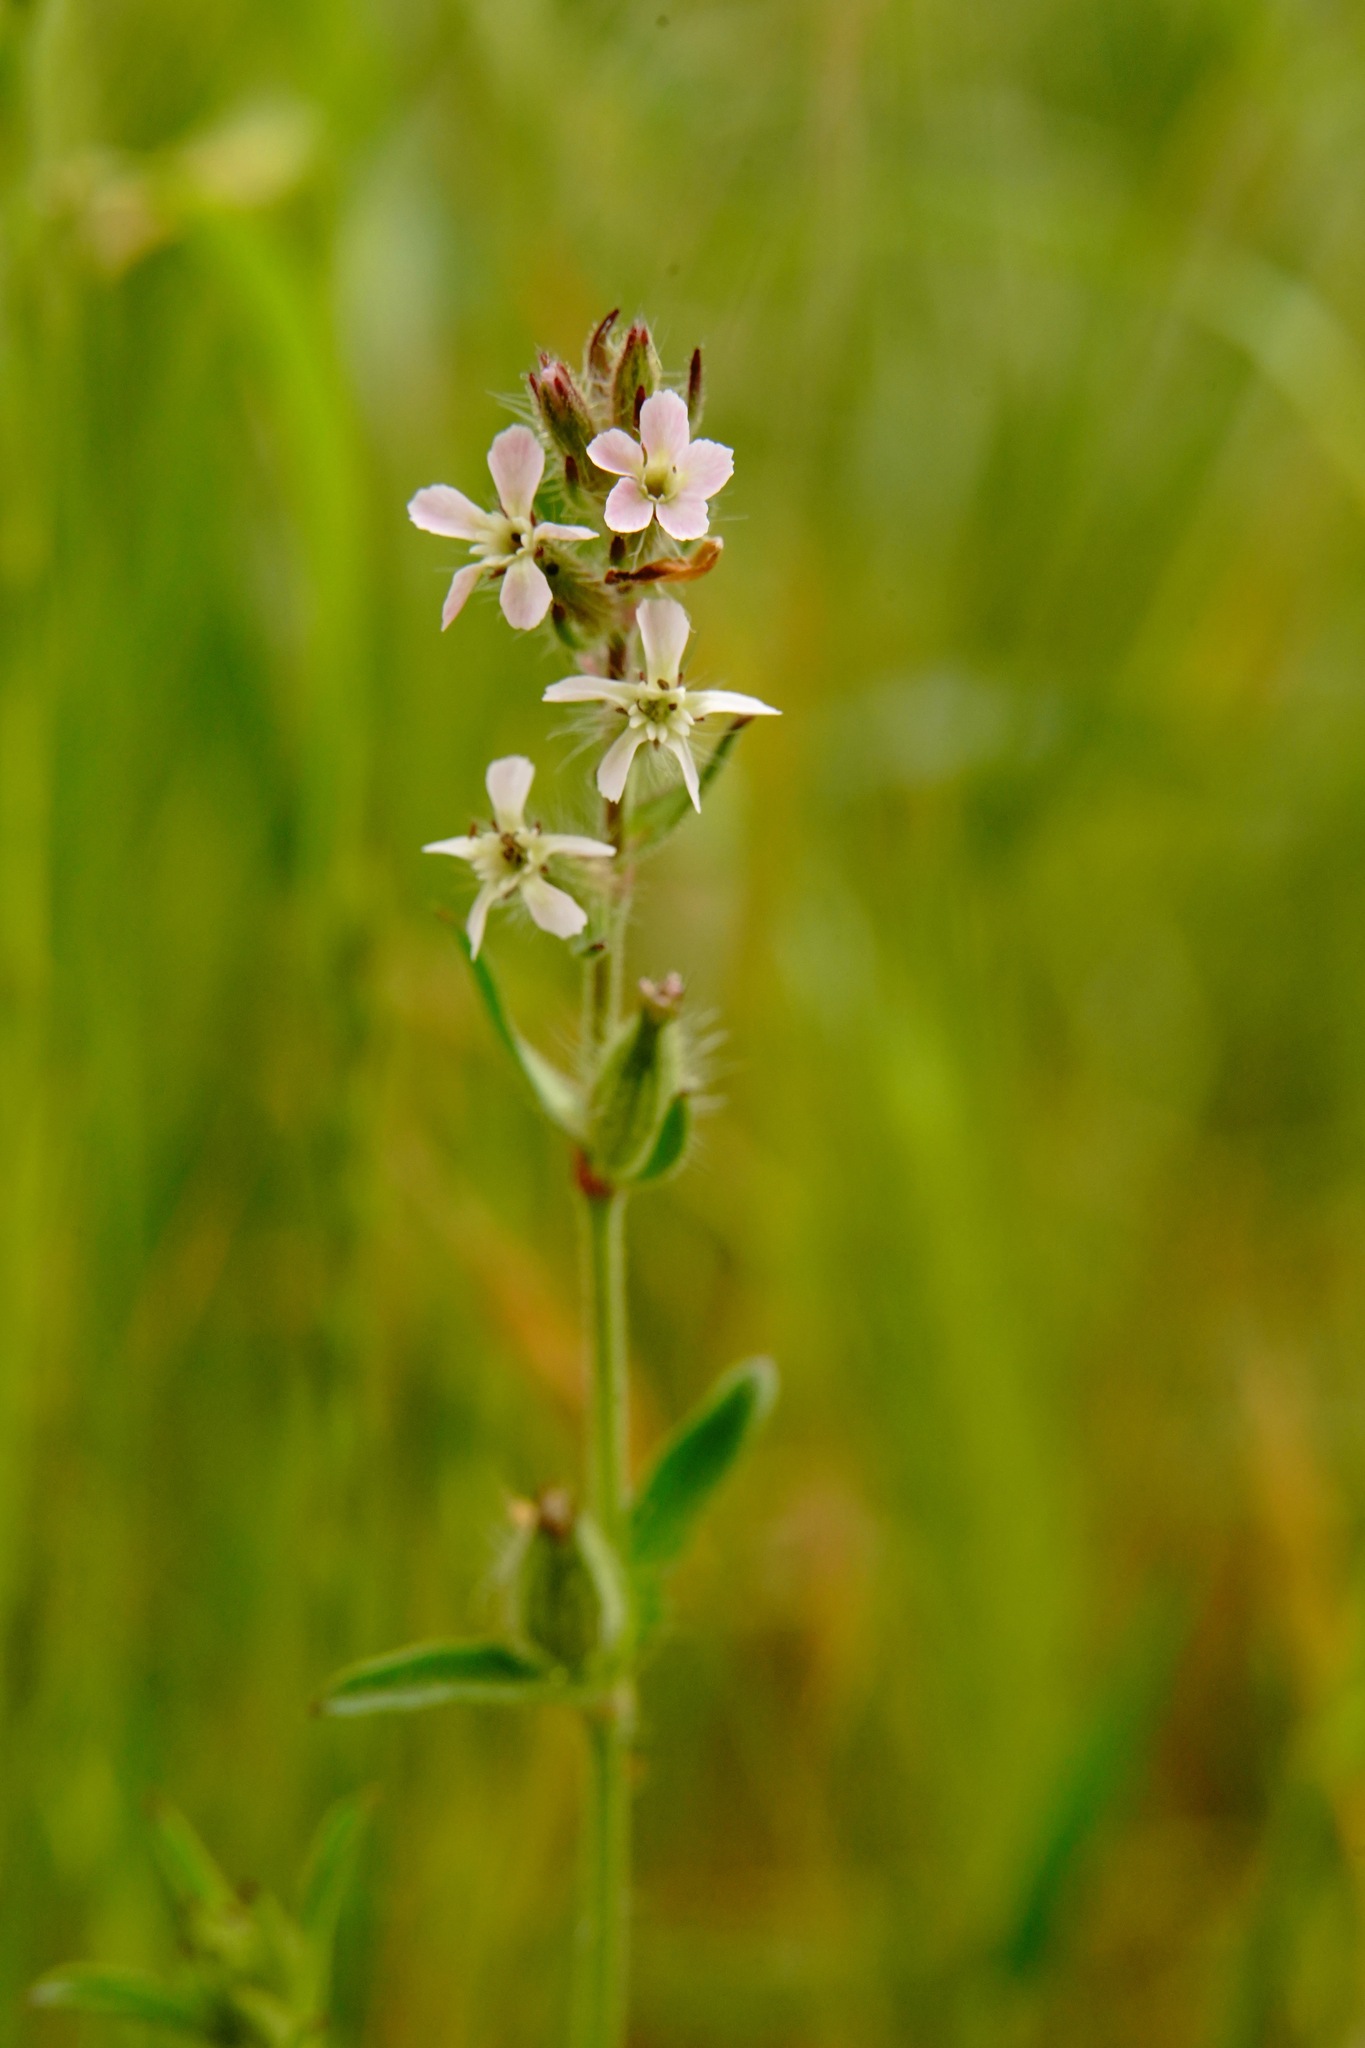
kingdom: Plantae
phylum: Tracheophyta
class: Magnoliopsida
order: Caryophyllales
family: Caryophyllaceae
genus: Silene
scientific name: Silene gallica
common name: Small-flowered catchfly
